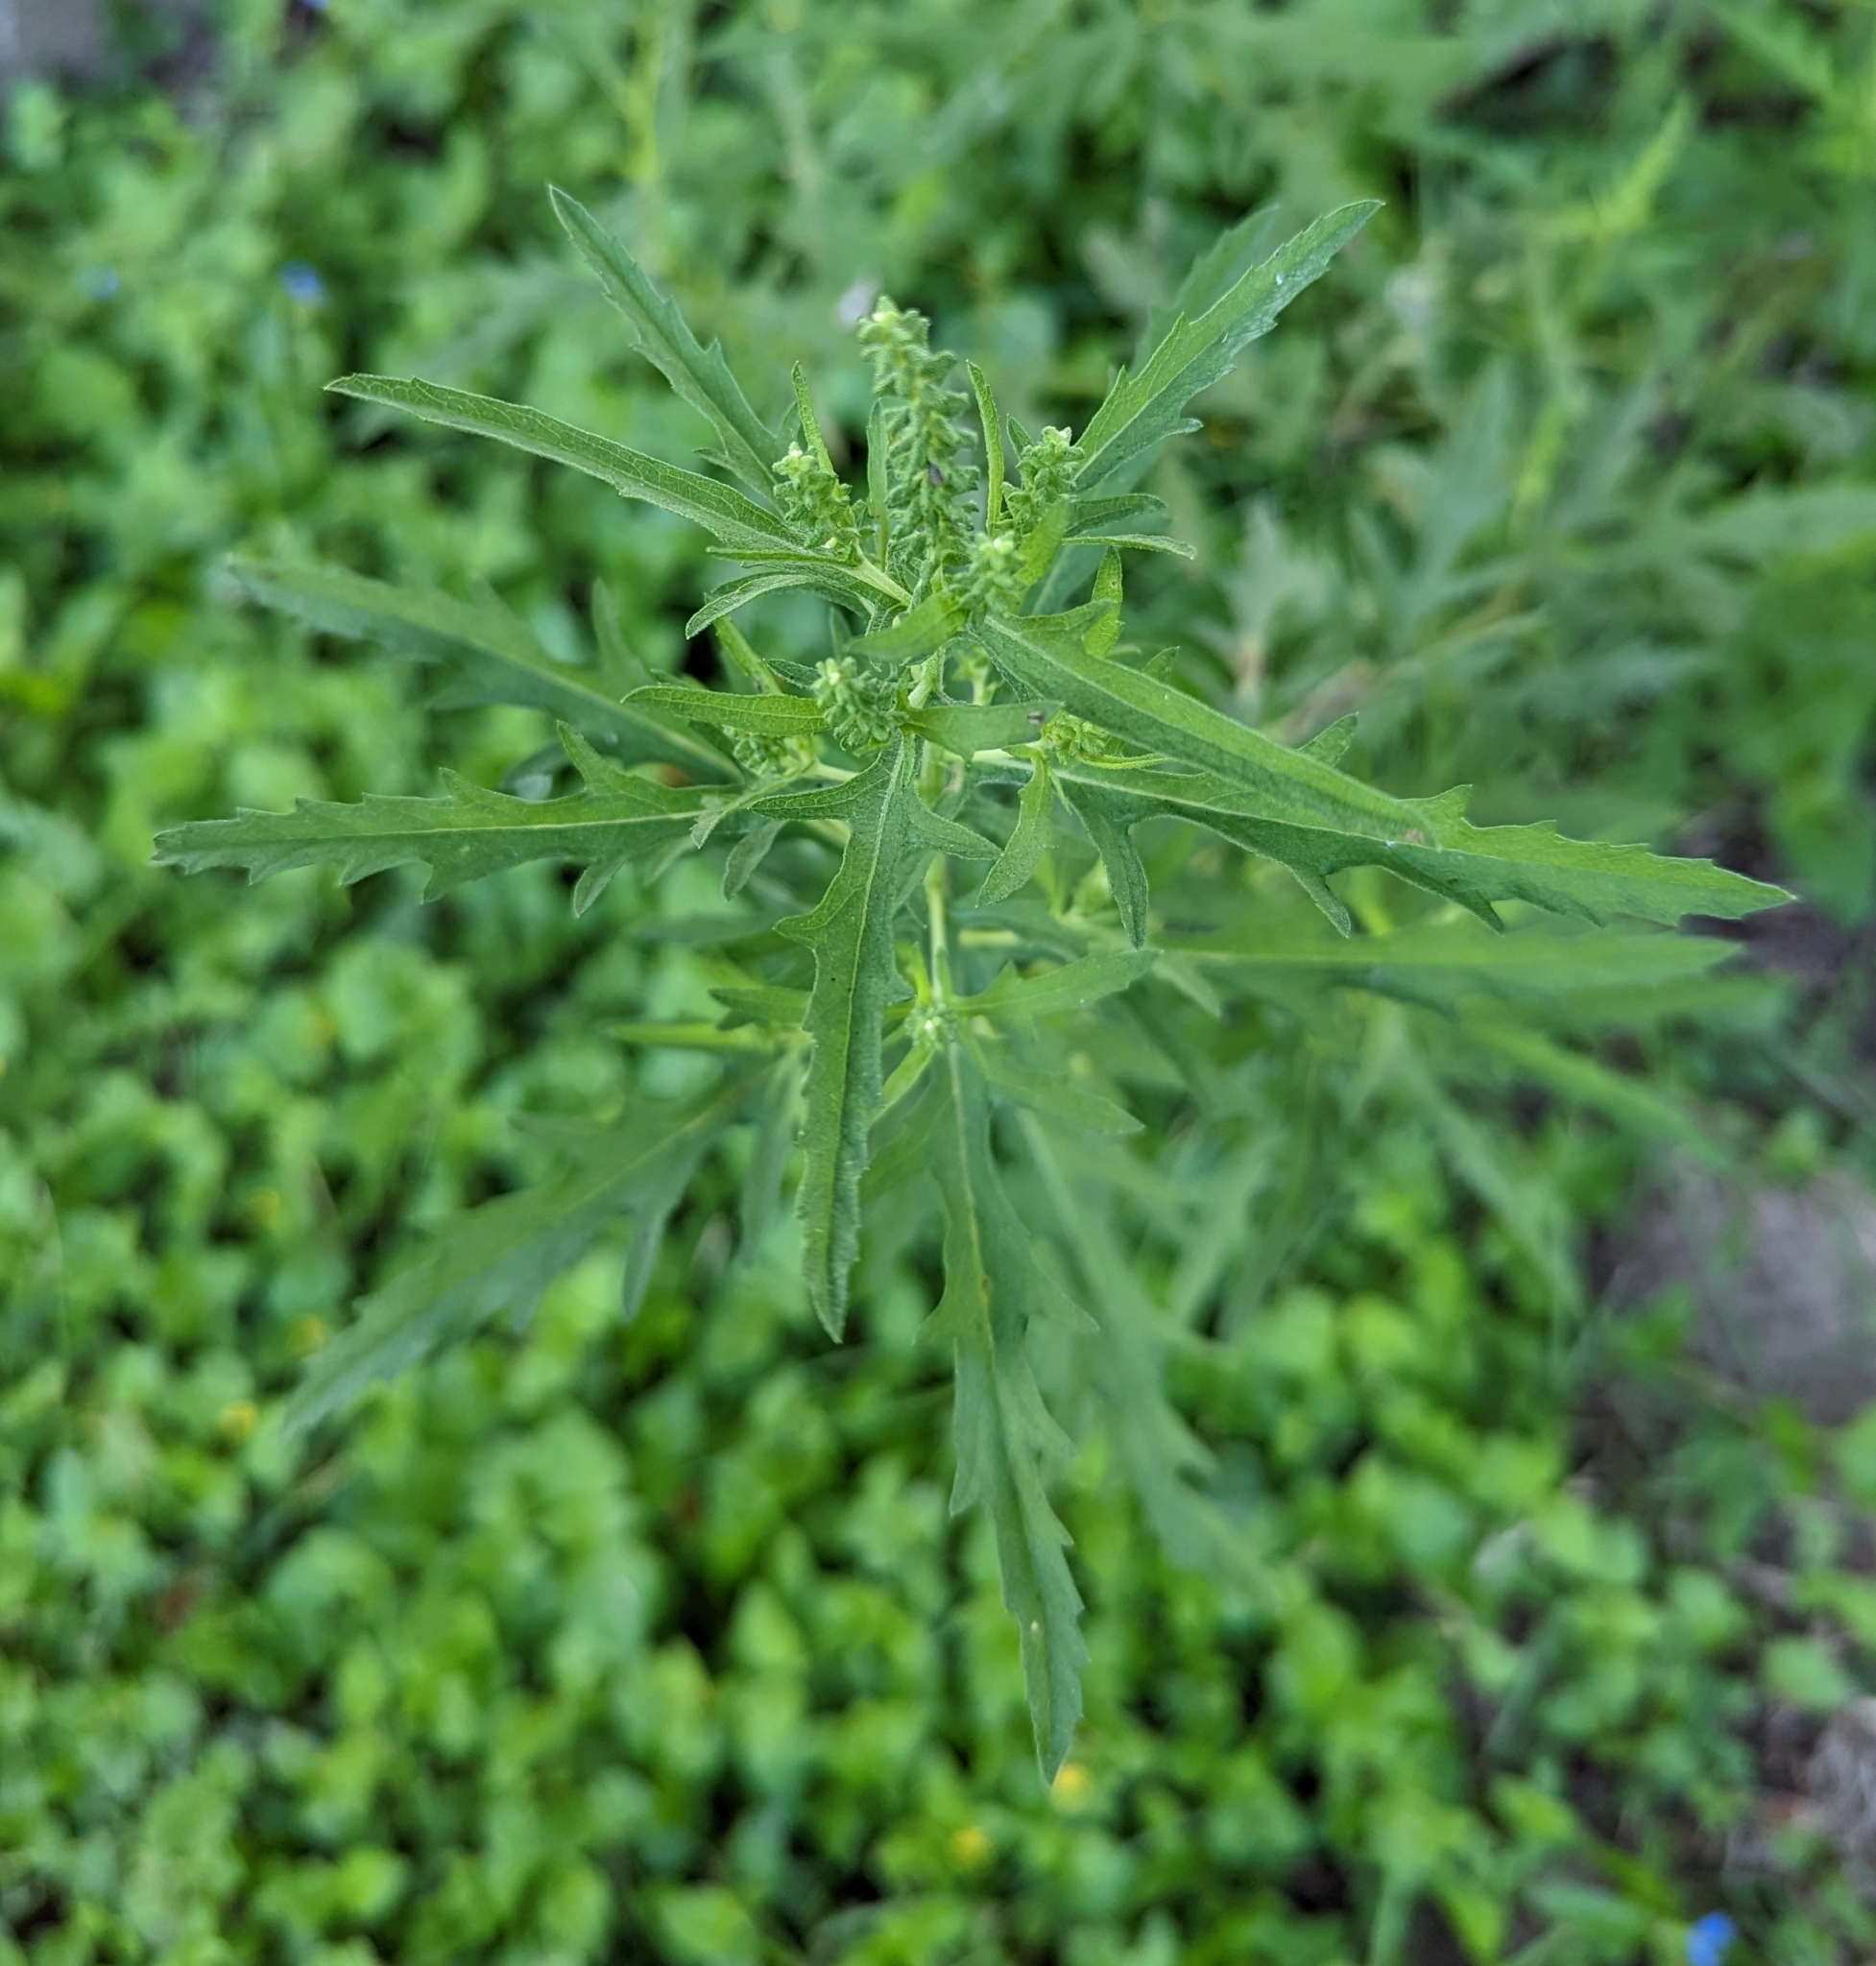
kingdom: Plantae
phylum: Tracheophyta
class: Magnoliopsida
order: Asterales
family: Asteraceae
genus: Ambrosia
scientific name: Ambrosia psilostachya
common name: Perennial ragweed
